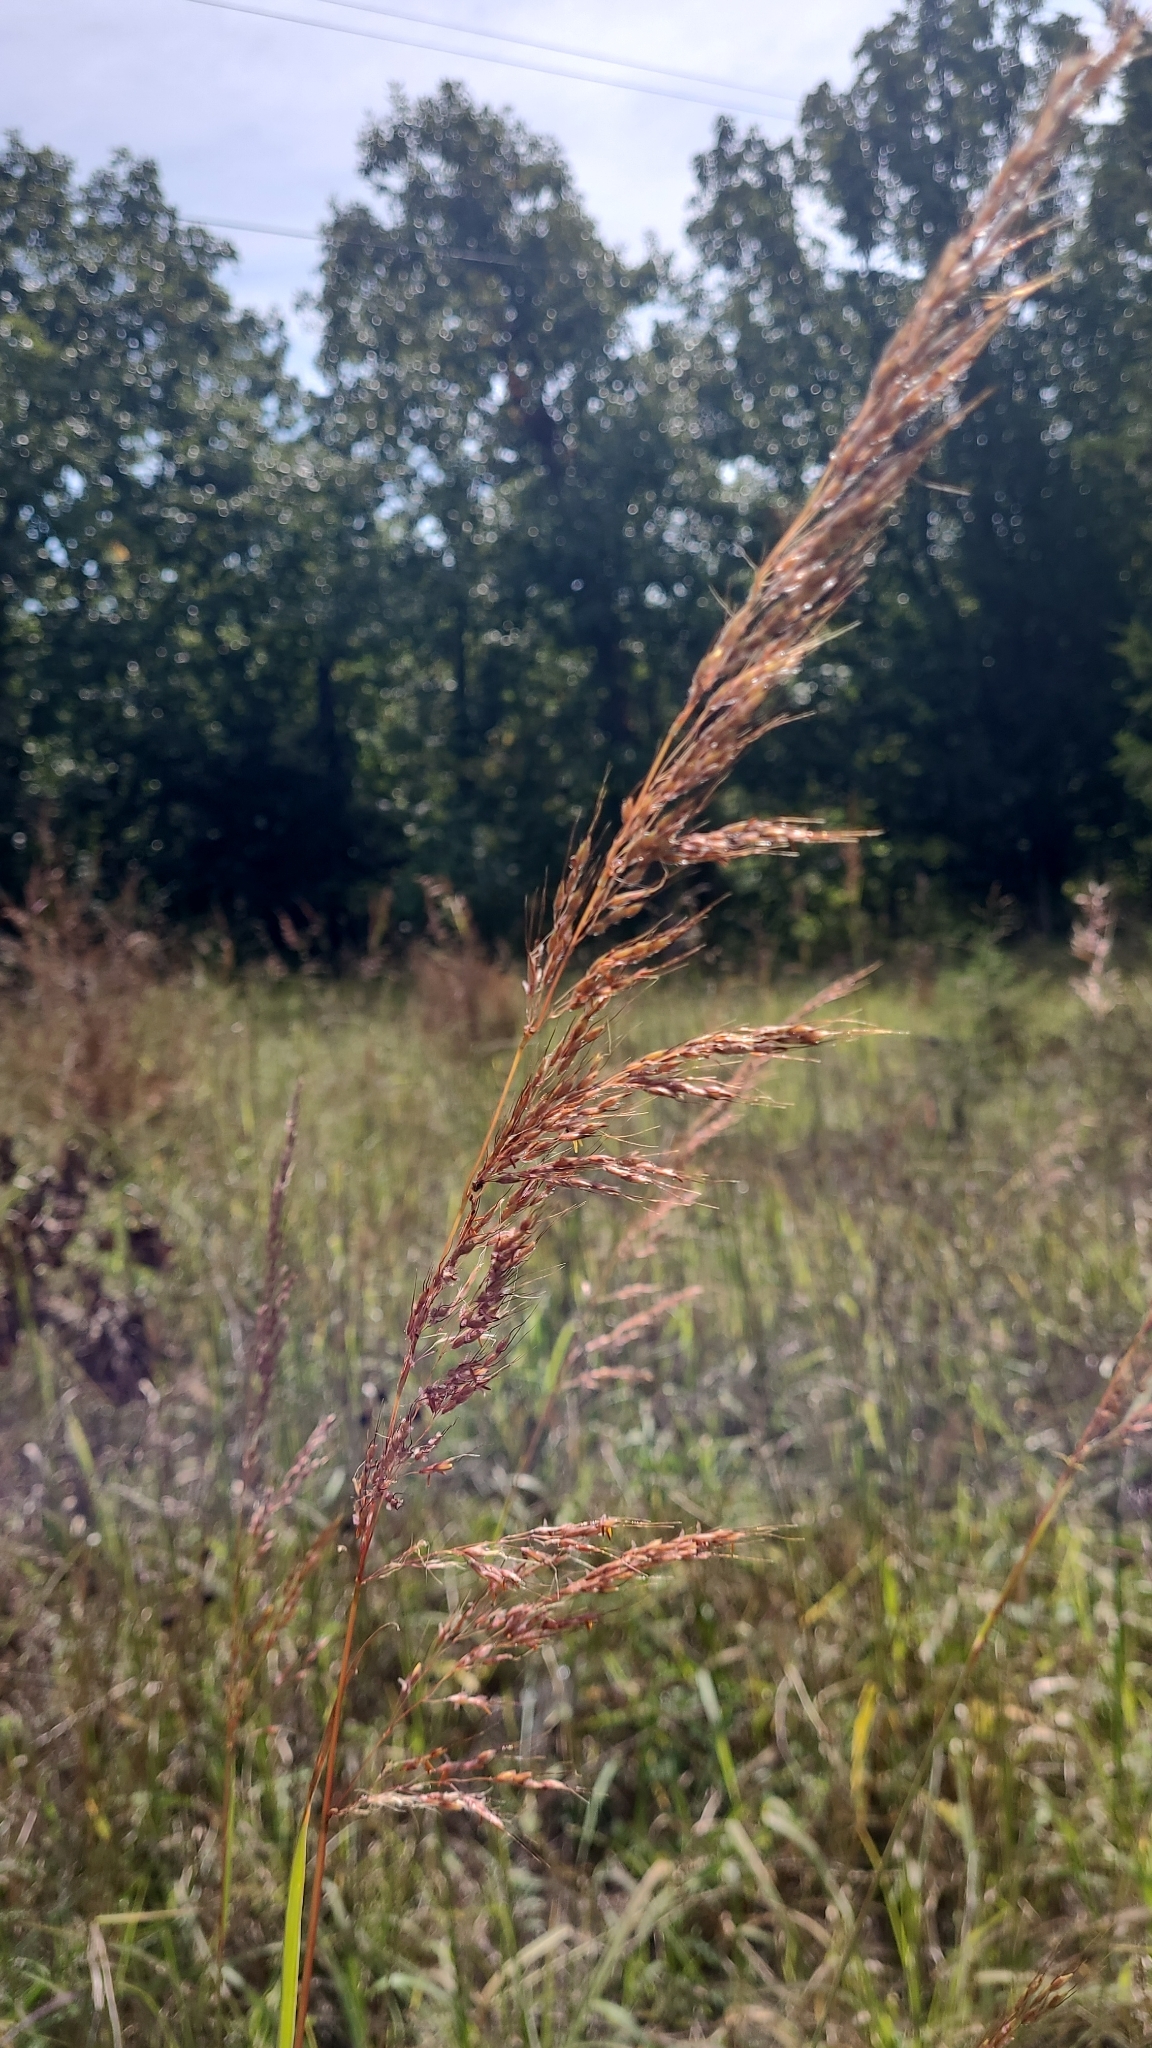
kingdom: Plantae
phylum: Tracheophyta
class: Liliopsida
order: Poales
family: Poaceae
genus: Sorghastrum
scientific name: Sorghastrum nutans
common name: Indian grass
